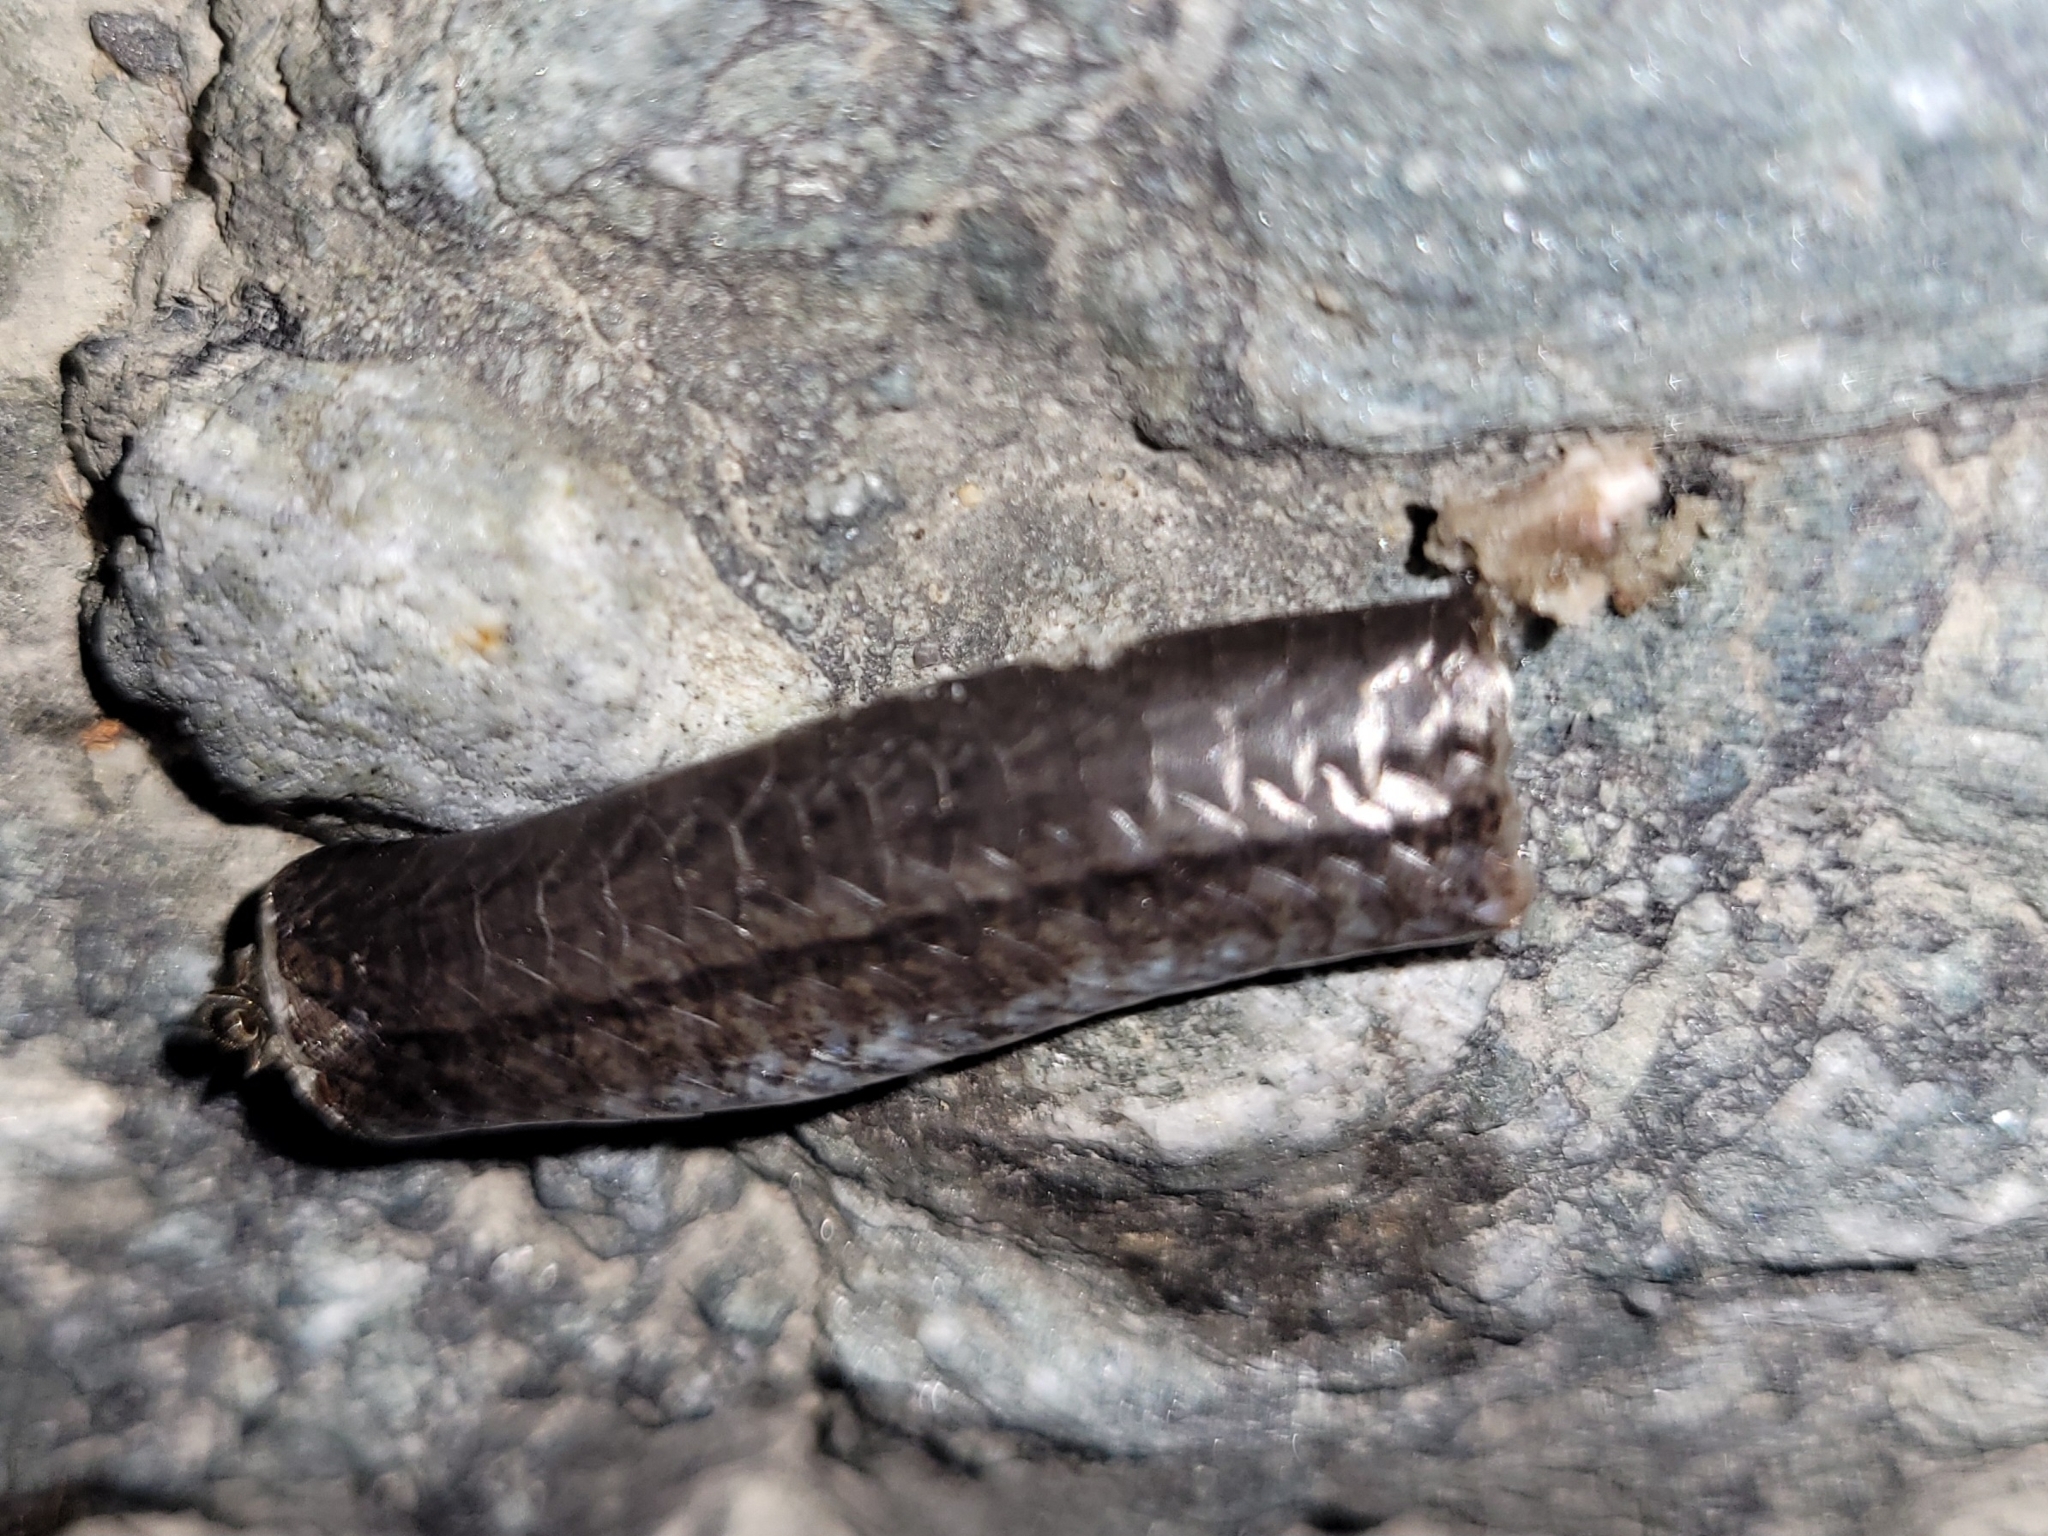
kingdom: Animalia
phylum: Chordata
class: Squamata
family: Anguidae
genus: Anguis
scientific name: Anguis fragilis
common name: Slow worm
